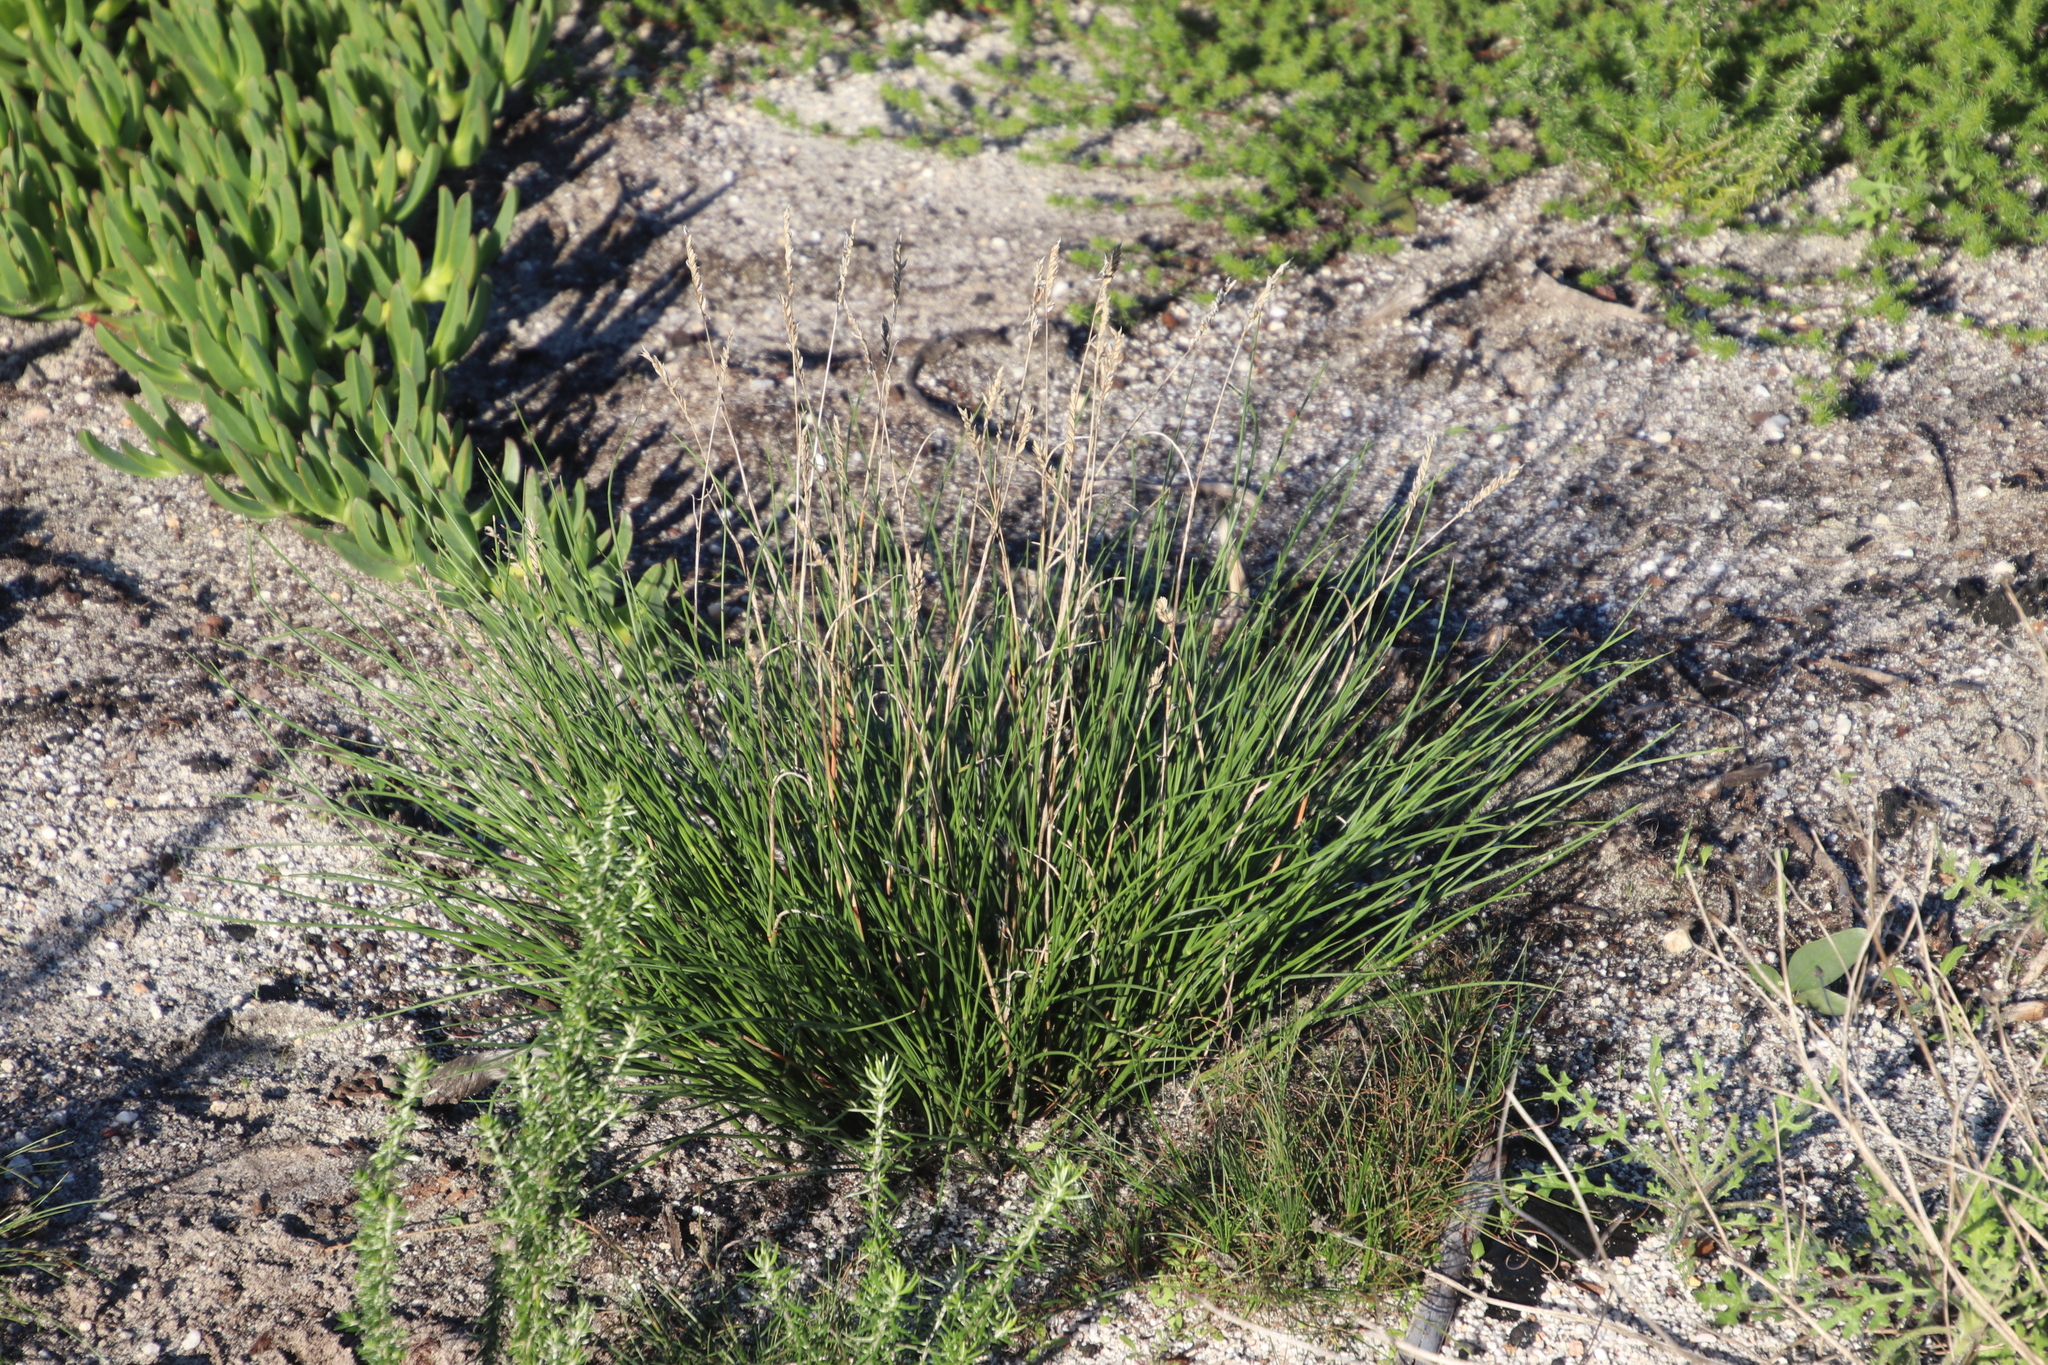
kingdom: Plantae
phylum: Tracheophyta
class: Liliopsida
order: Poales
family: Poaceae
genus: Tribolium
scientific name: Tribolium uniolae
